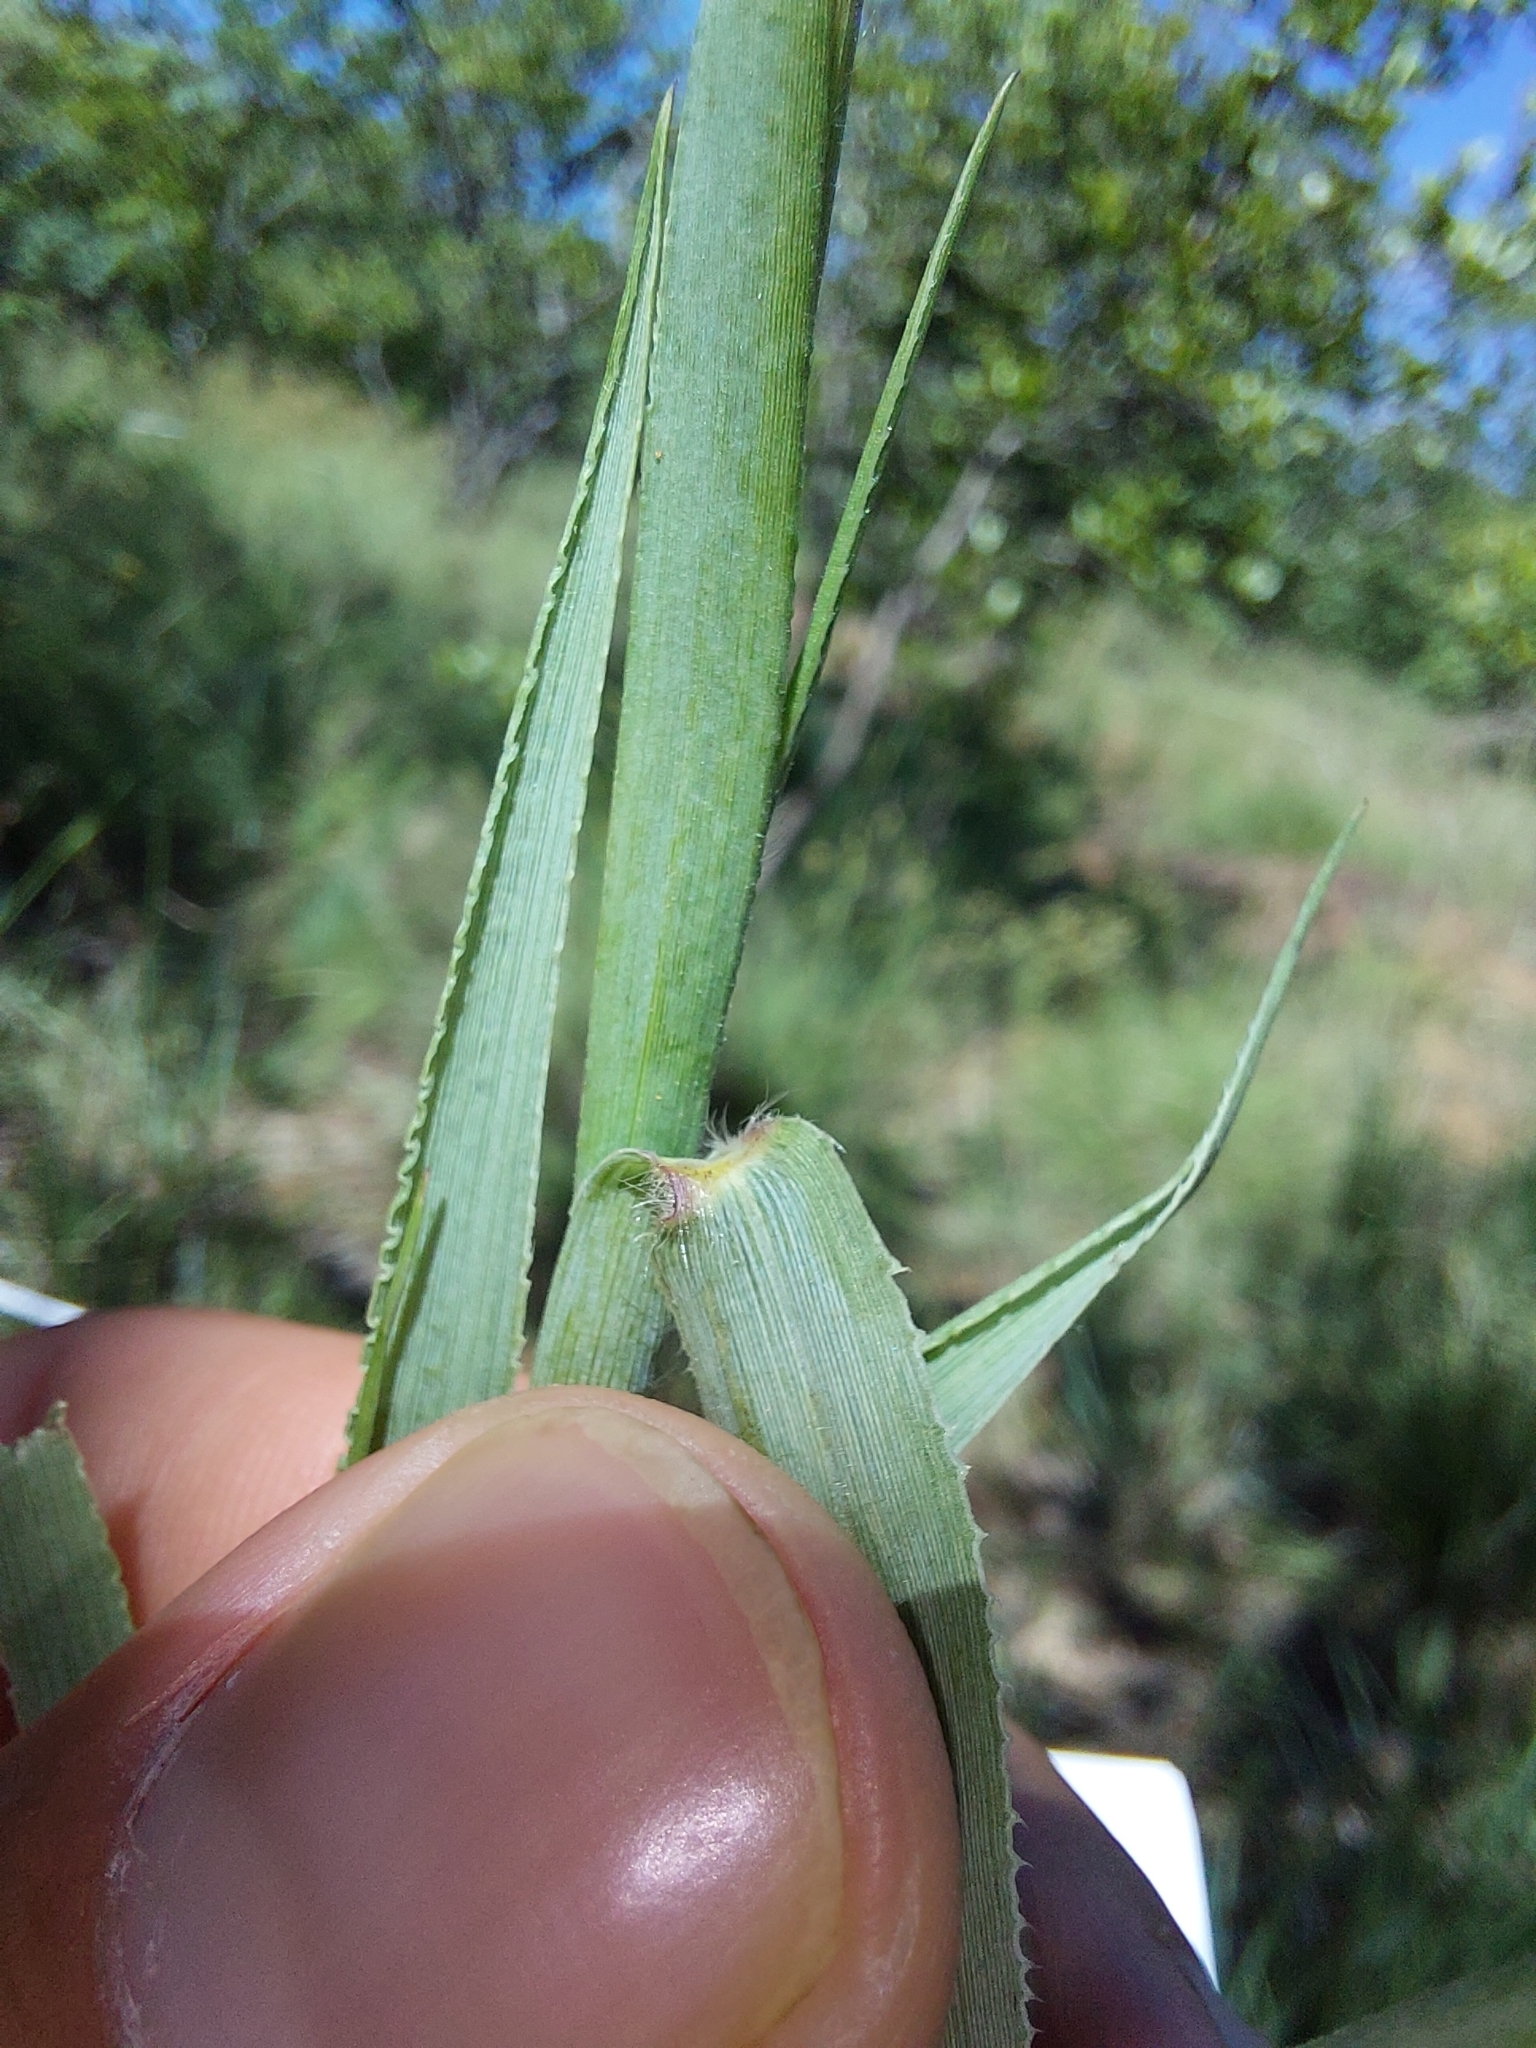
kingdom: Plantae
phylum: Tracheophyta
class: Liliopsida
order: Poales
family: Poaceae
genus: Urochloa
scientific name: Urochloa serrata
